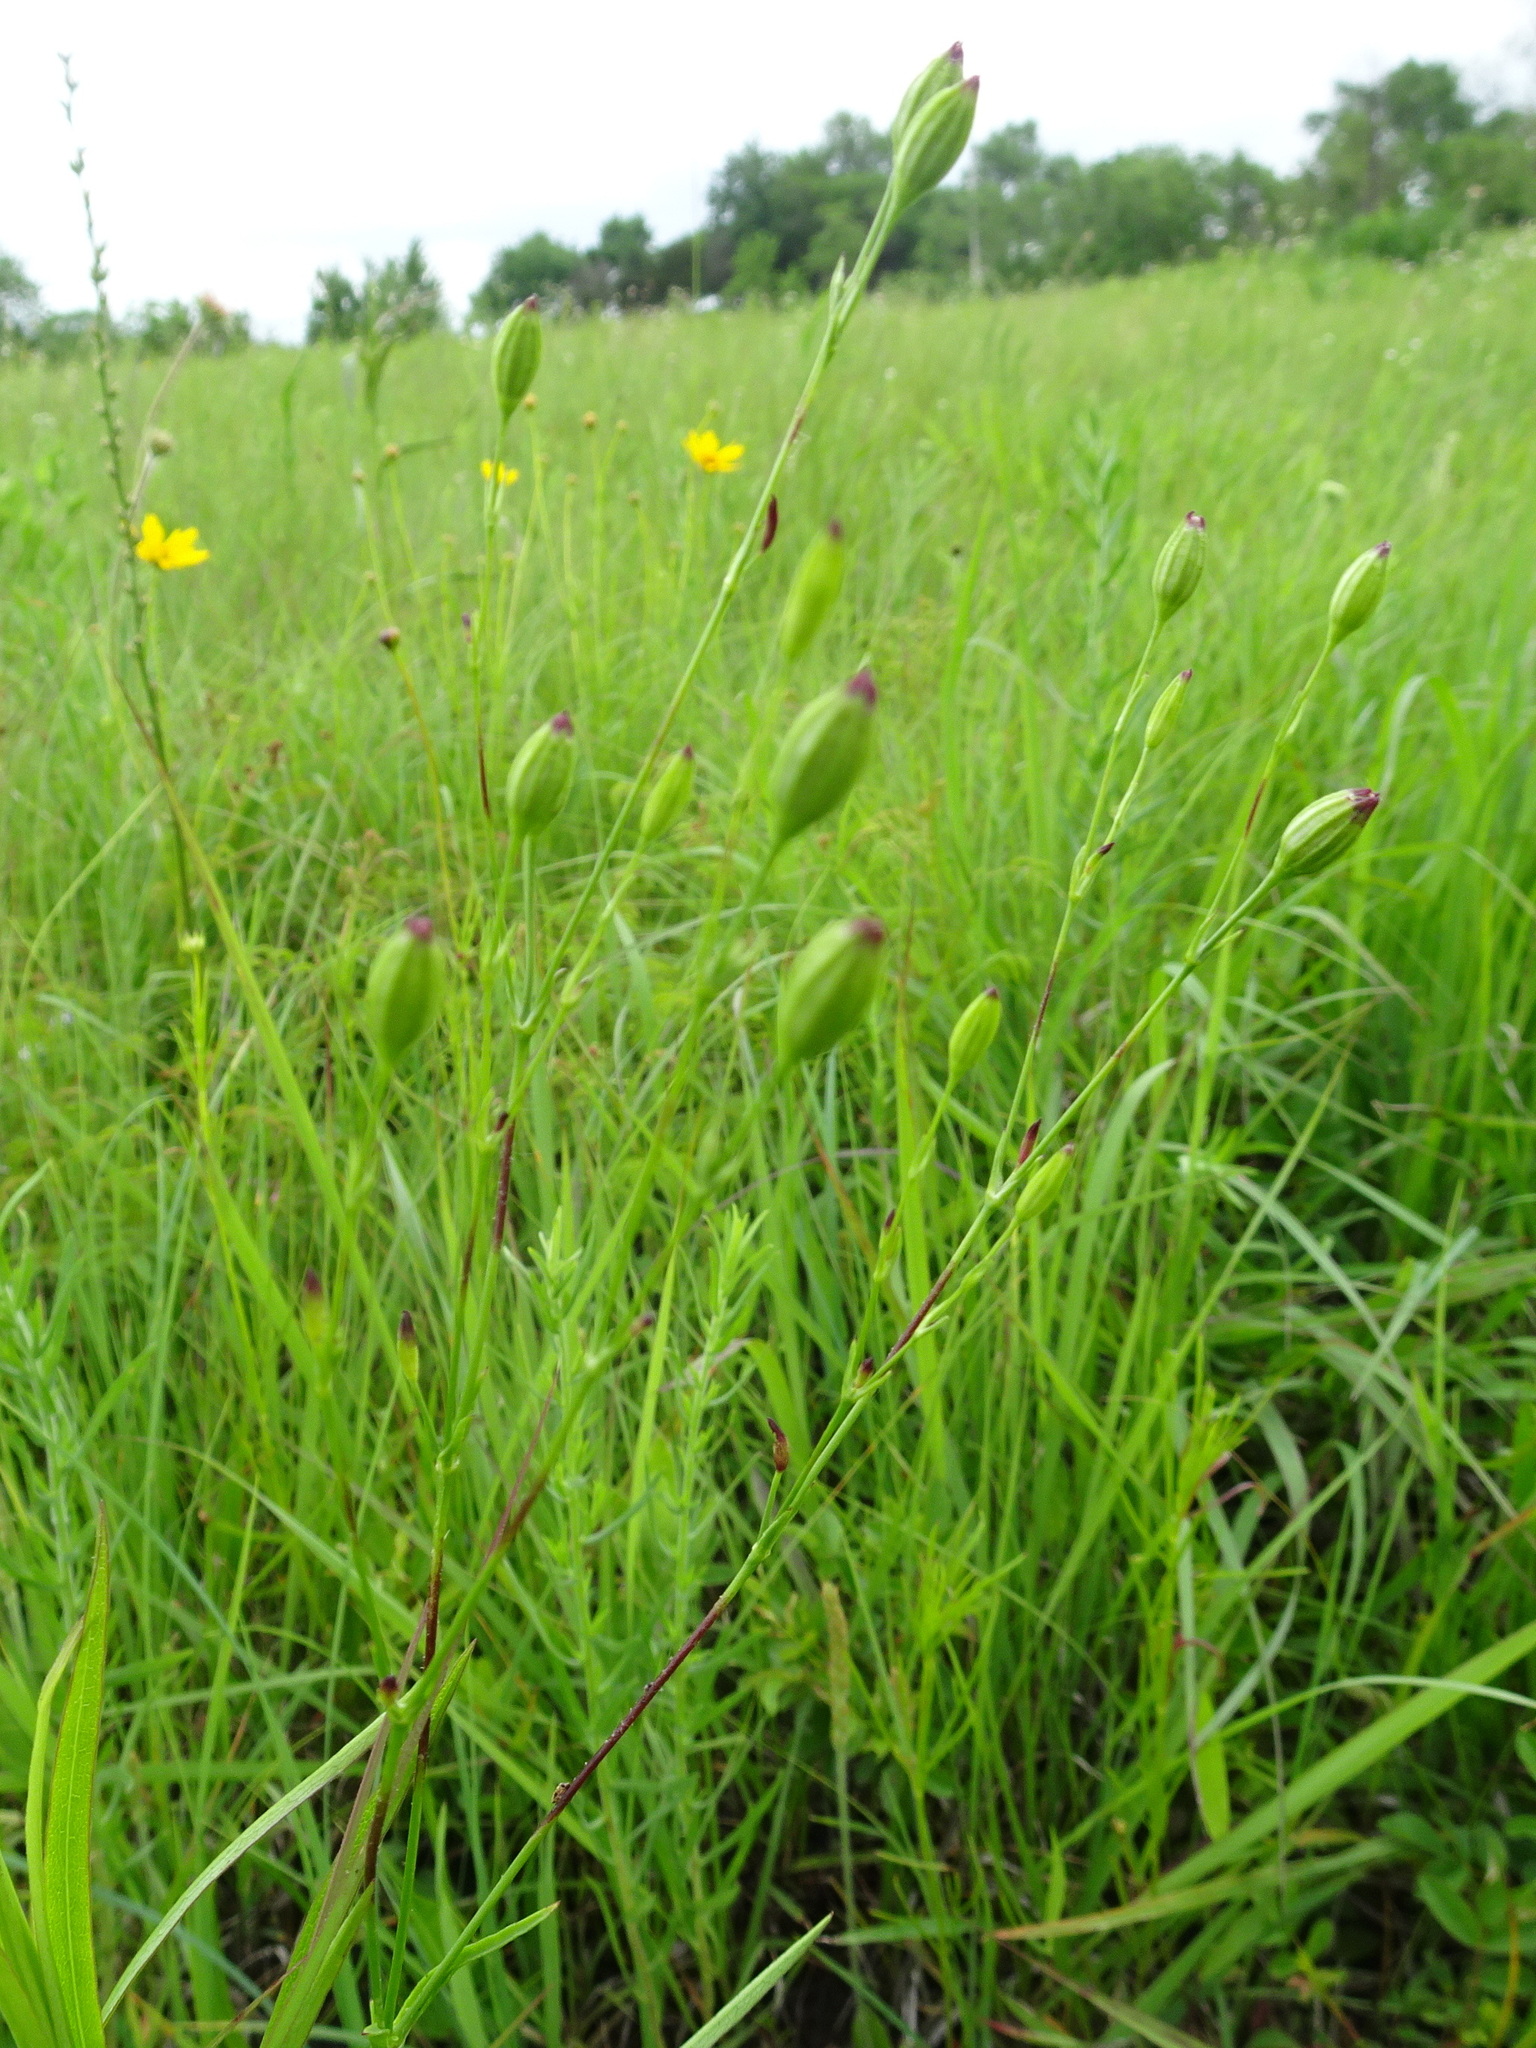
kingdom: Plantae
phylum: Tracheophyta
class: Magnoliopsida
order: Caryophyllales
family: Caryophyllaceae
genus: Silene
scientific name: Silene antirrhina
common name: Sleepy catchfly
